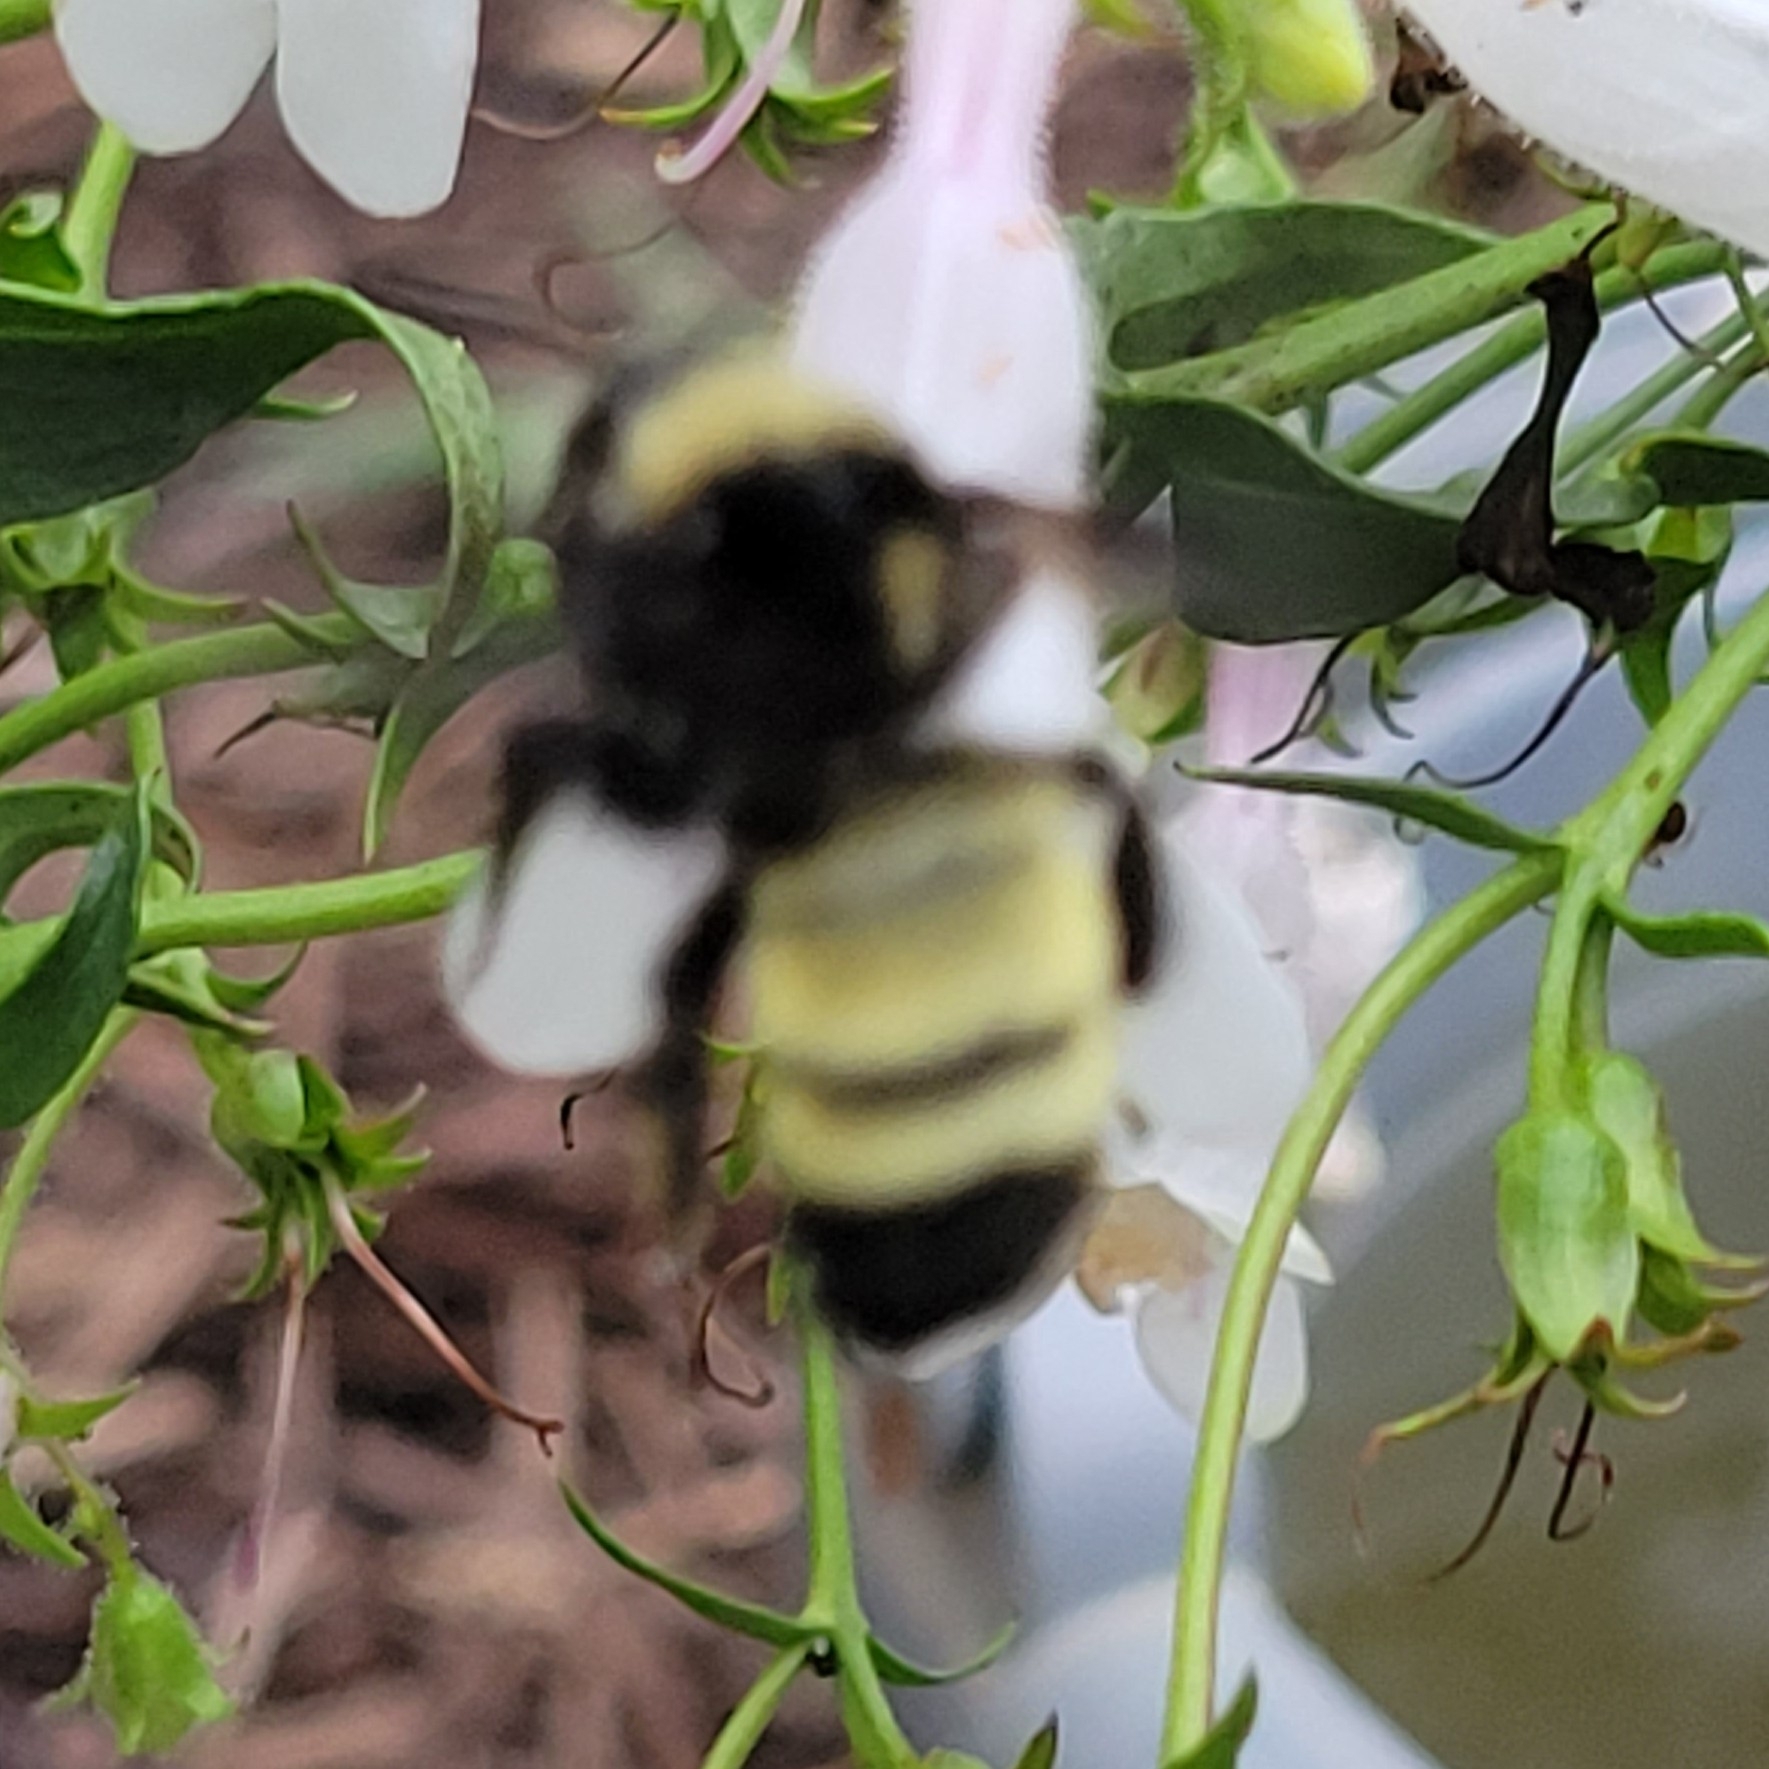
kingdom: Animalia
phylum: Arthropoda
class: Insecta
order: Hymenoptera
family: Apidae
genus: Bombus
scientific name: Bombus pensylvanicus
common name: Bumble bee
